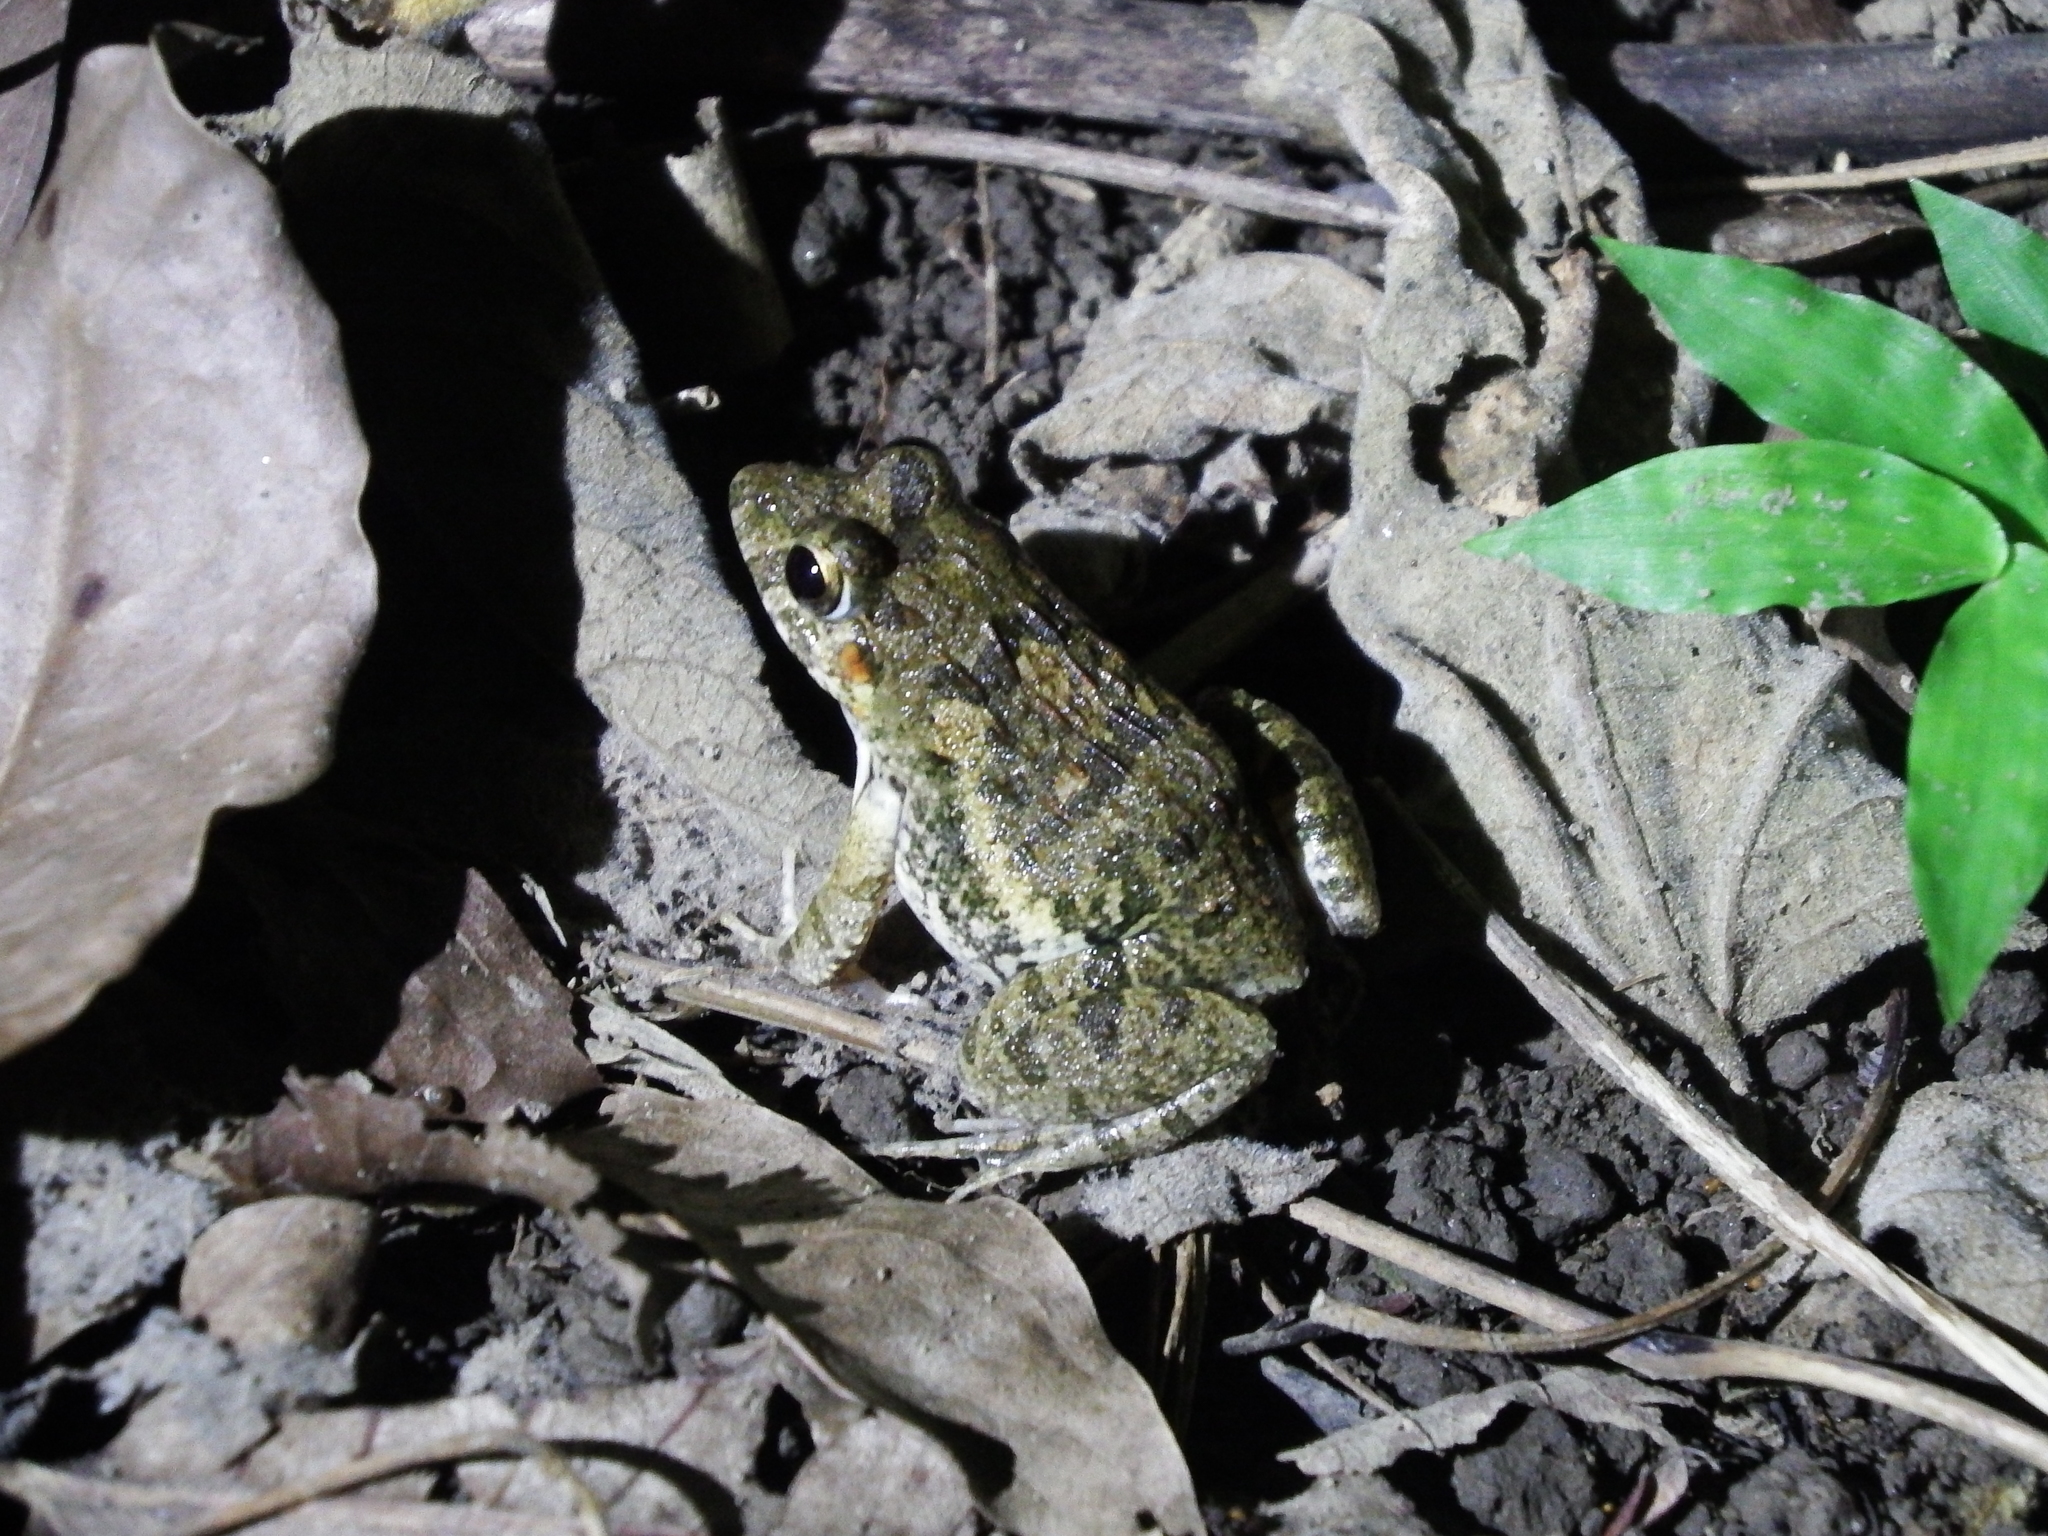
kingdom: Animalia
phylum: Chordata
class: Amphibia
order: Anura
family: Dicroglossidae
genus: Fejervarya
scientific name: Fejervarya limnocharis
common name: Asian grass frog/common pond frog/field frog/grass frog/indian rice frog
